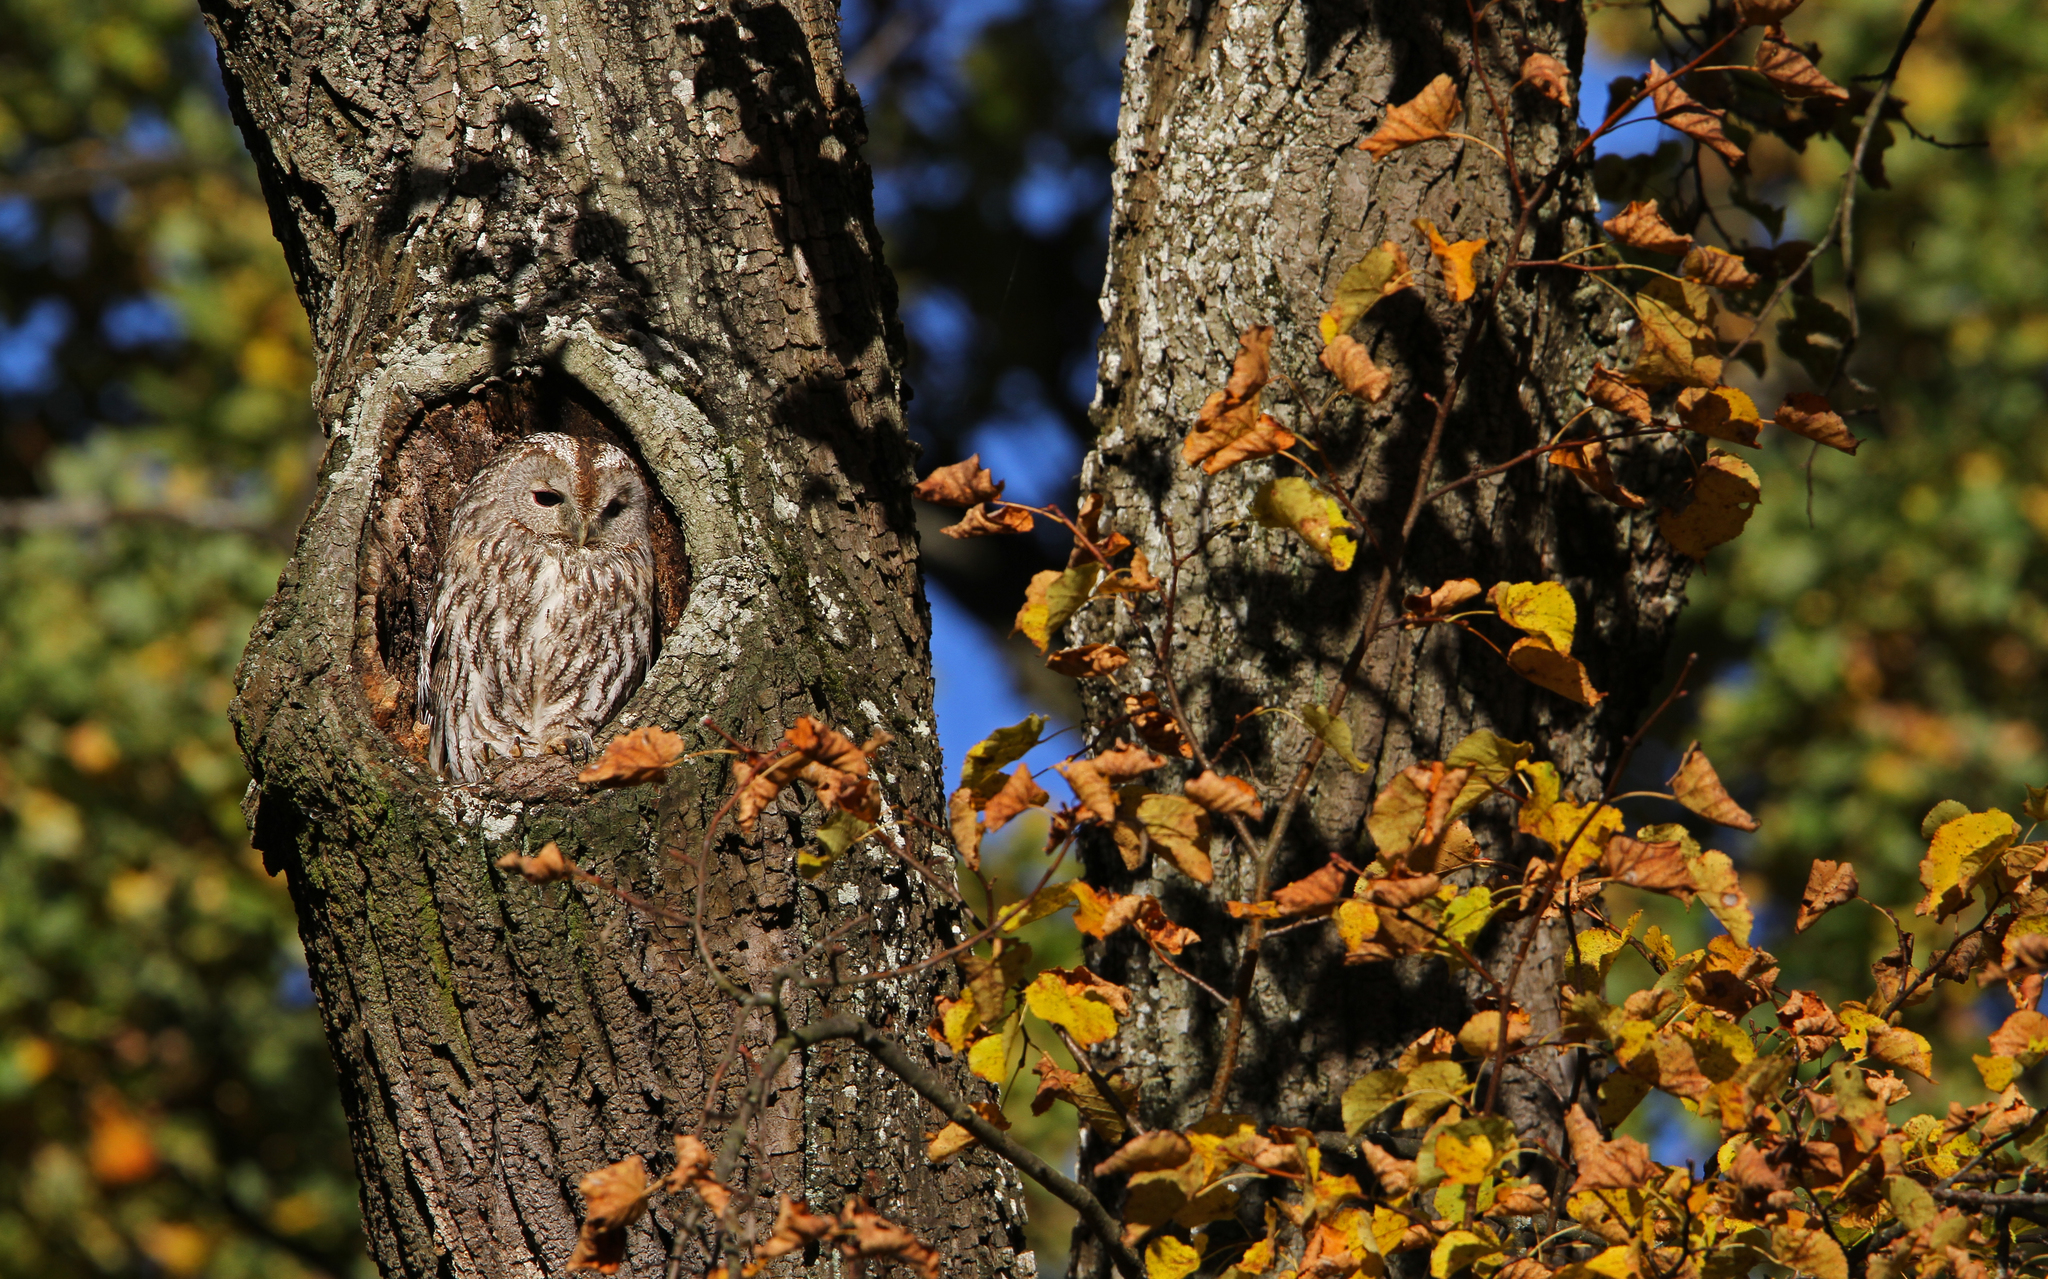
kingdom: Animalia
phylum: Chordata
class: Aves
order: Strigiformes
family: Strigidae
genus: Strix
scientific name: Strix aluco
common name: Tawny owl
